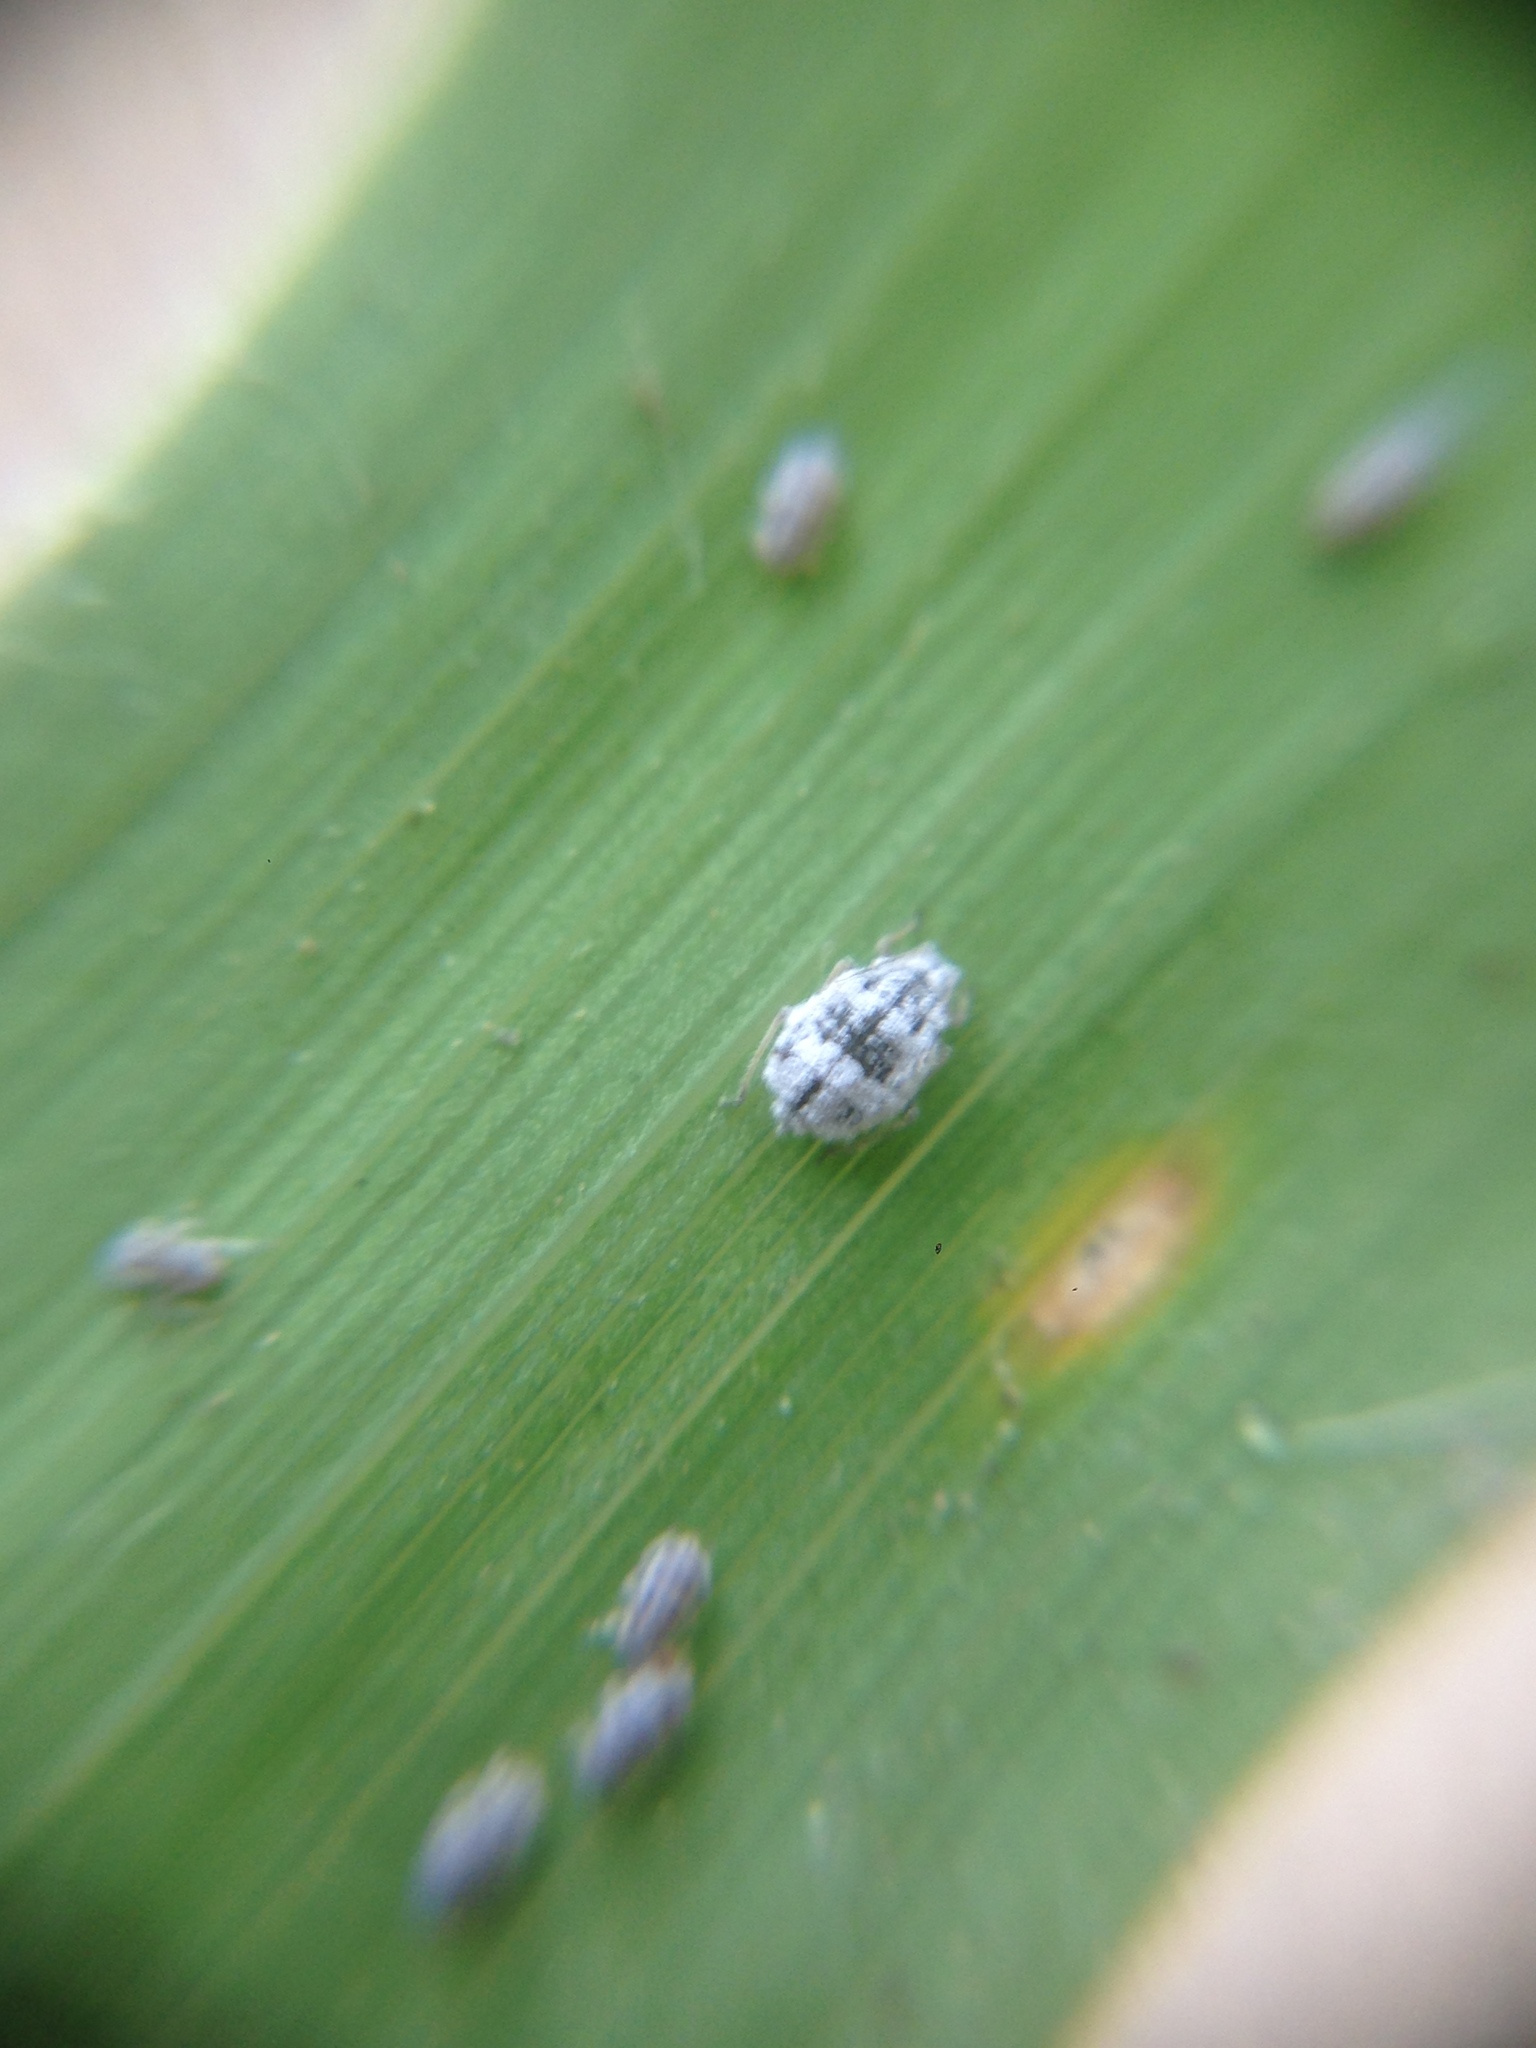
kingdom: Animalia
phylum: Arthropoda
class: Insecta
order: Hemiptera
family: Aphididae
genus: Melanaphis
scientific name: Melanaphis donacis
